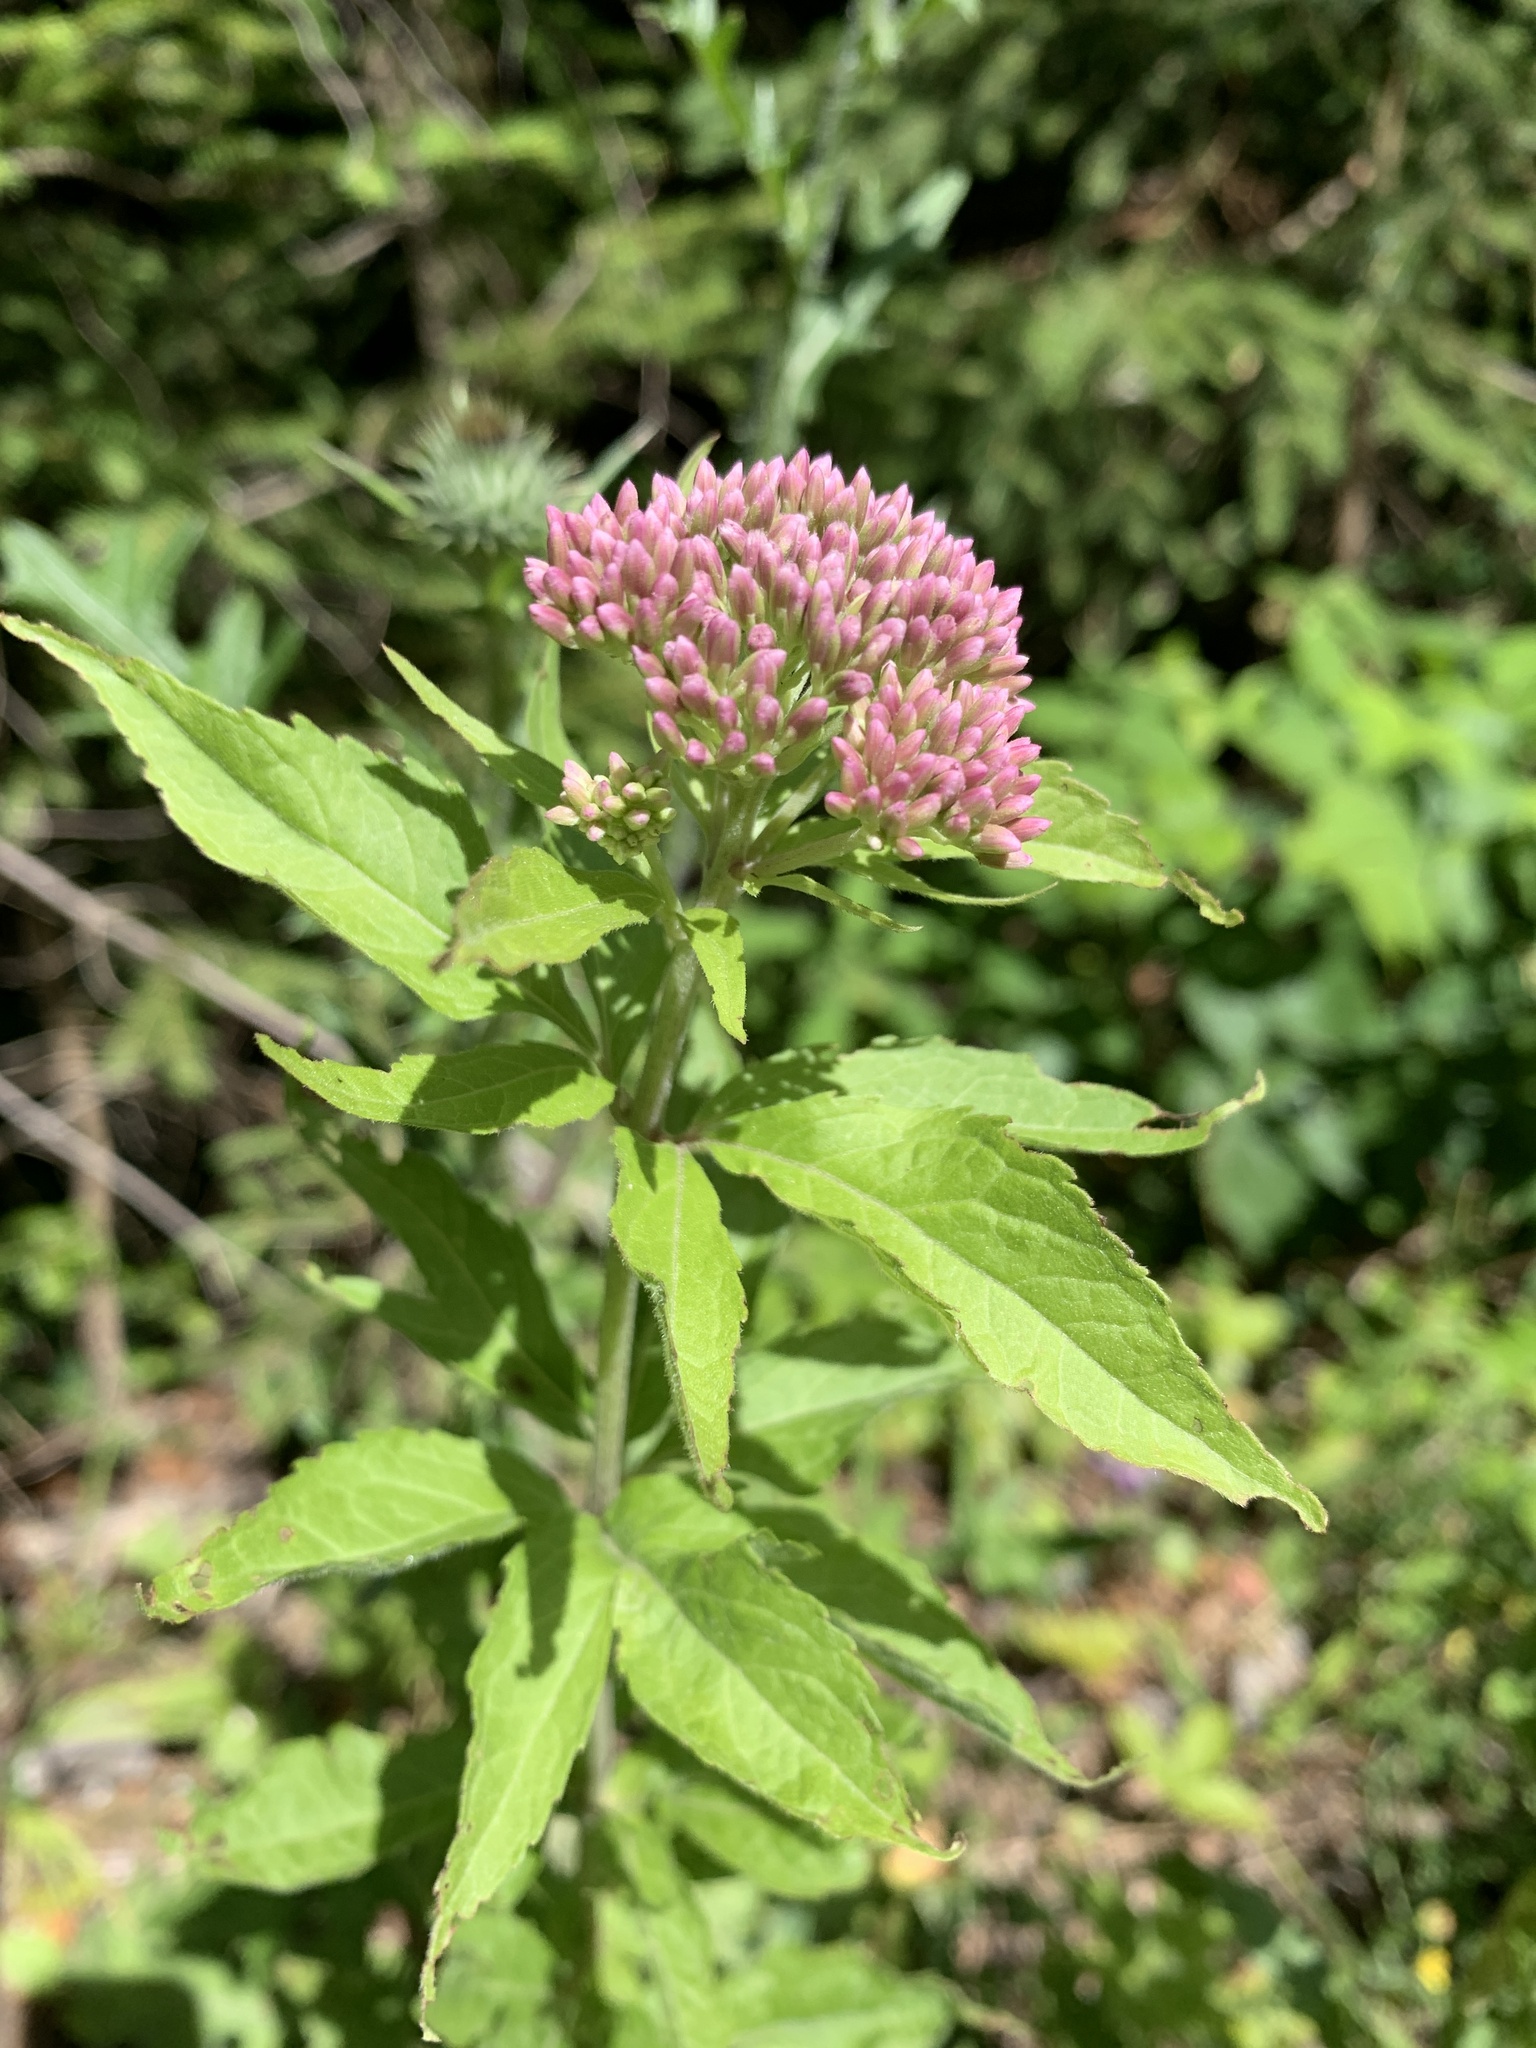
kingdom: Plantae
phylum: Tracheophyta
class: Magnoliopsida
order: Asterales
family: Asteraceae
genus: Eupatorium
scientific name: Eupatorium cannabinum
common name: Hemp-agrimony
